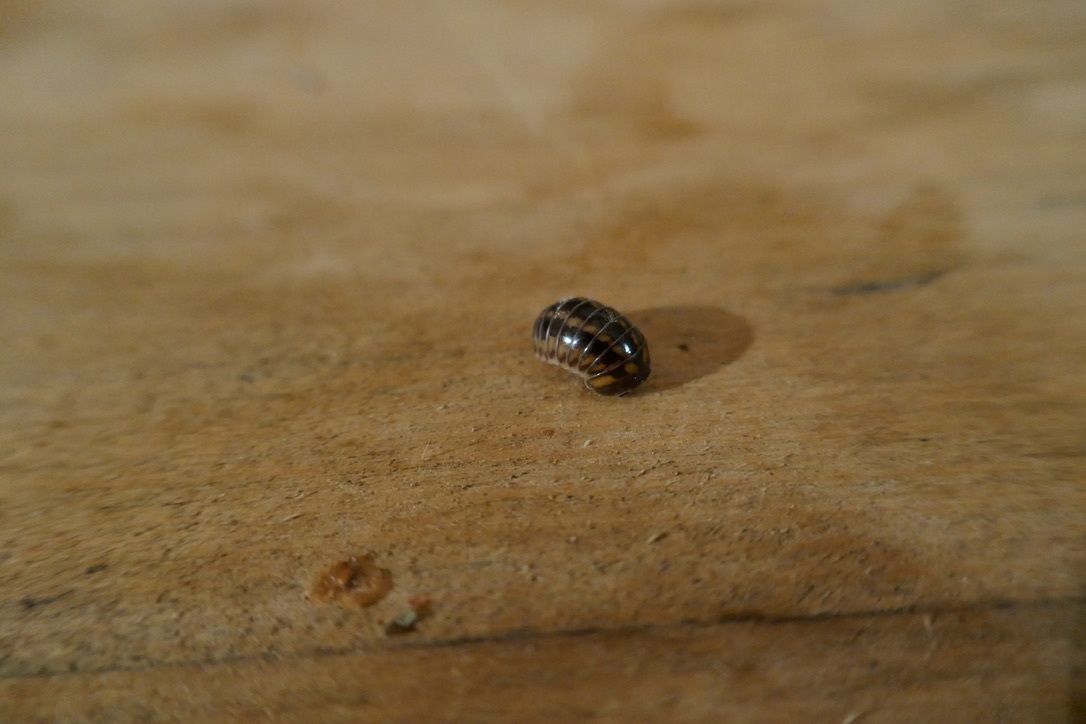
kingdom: Animalia
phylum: Arthropoda
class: Diplopoda
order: Glomerida
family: Glomeridae
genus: Glomeris
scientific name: Glomeris tetrasticha
